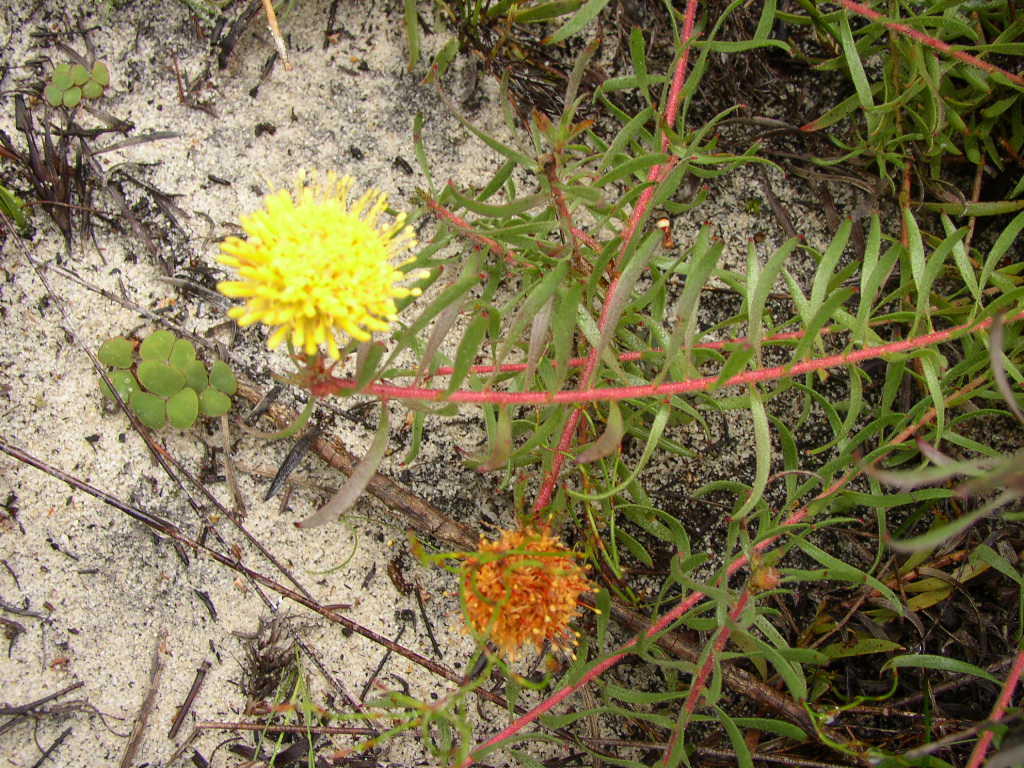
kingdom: Plantae
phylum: Tracheophyta
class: Magnoliopsida
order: Proteales
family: Proteaceae
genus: Leucospermum
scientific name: Leucospermum prostratum
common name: Yellow-trailing pincushion
